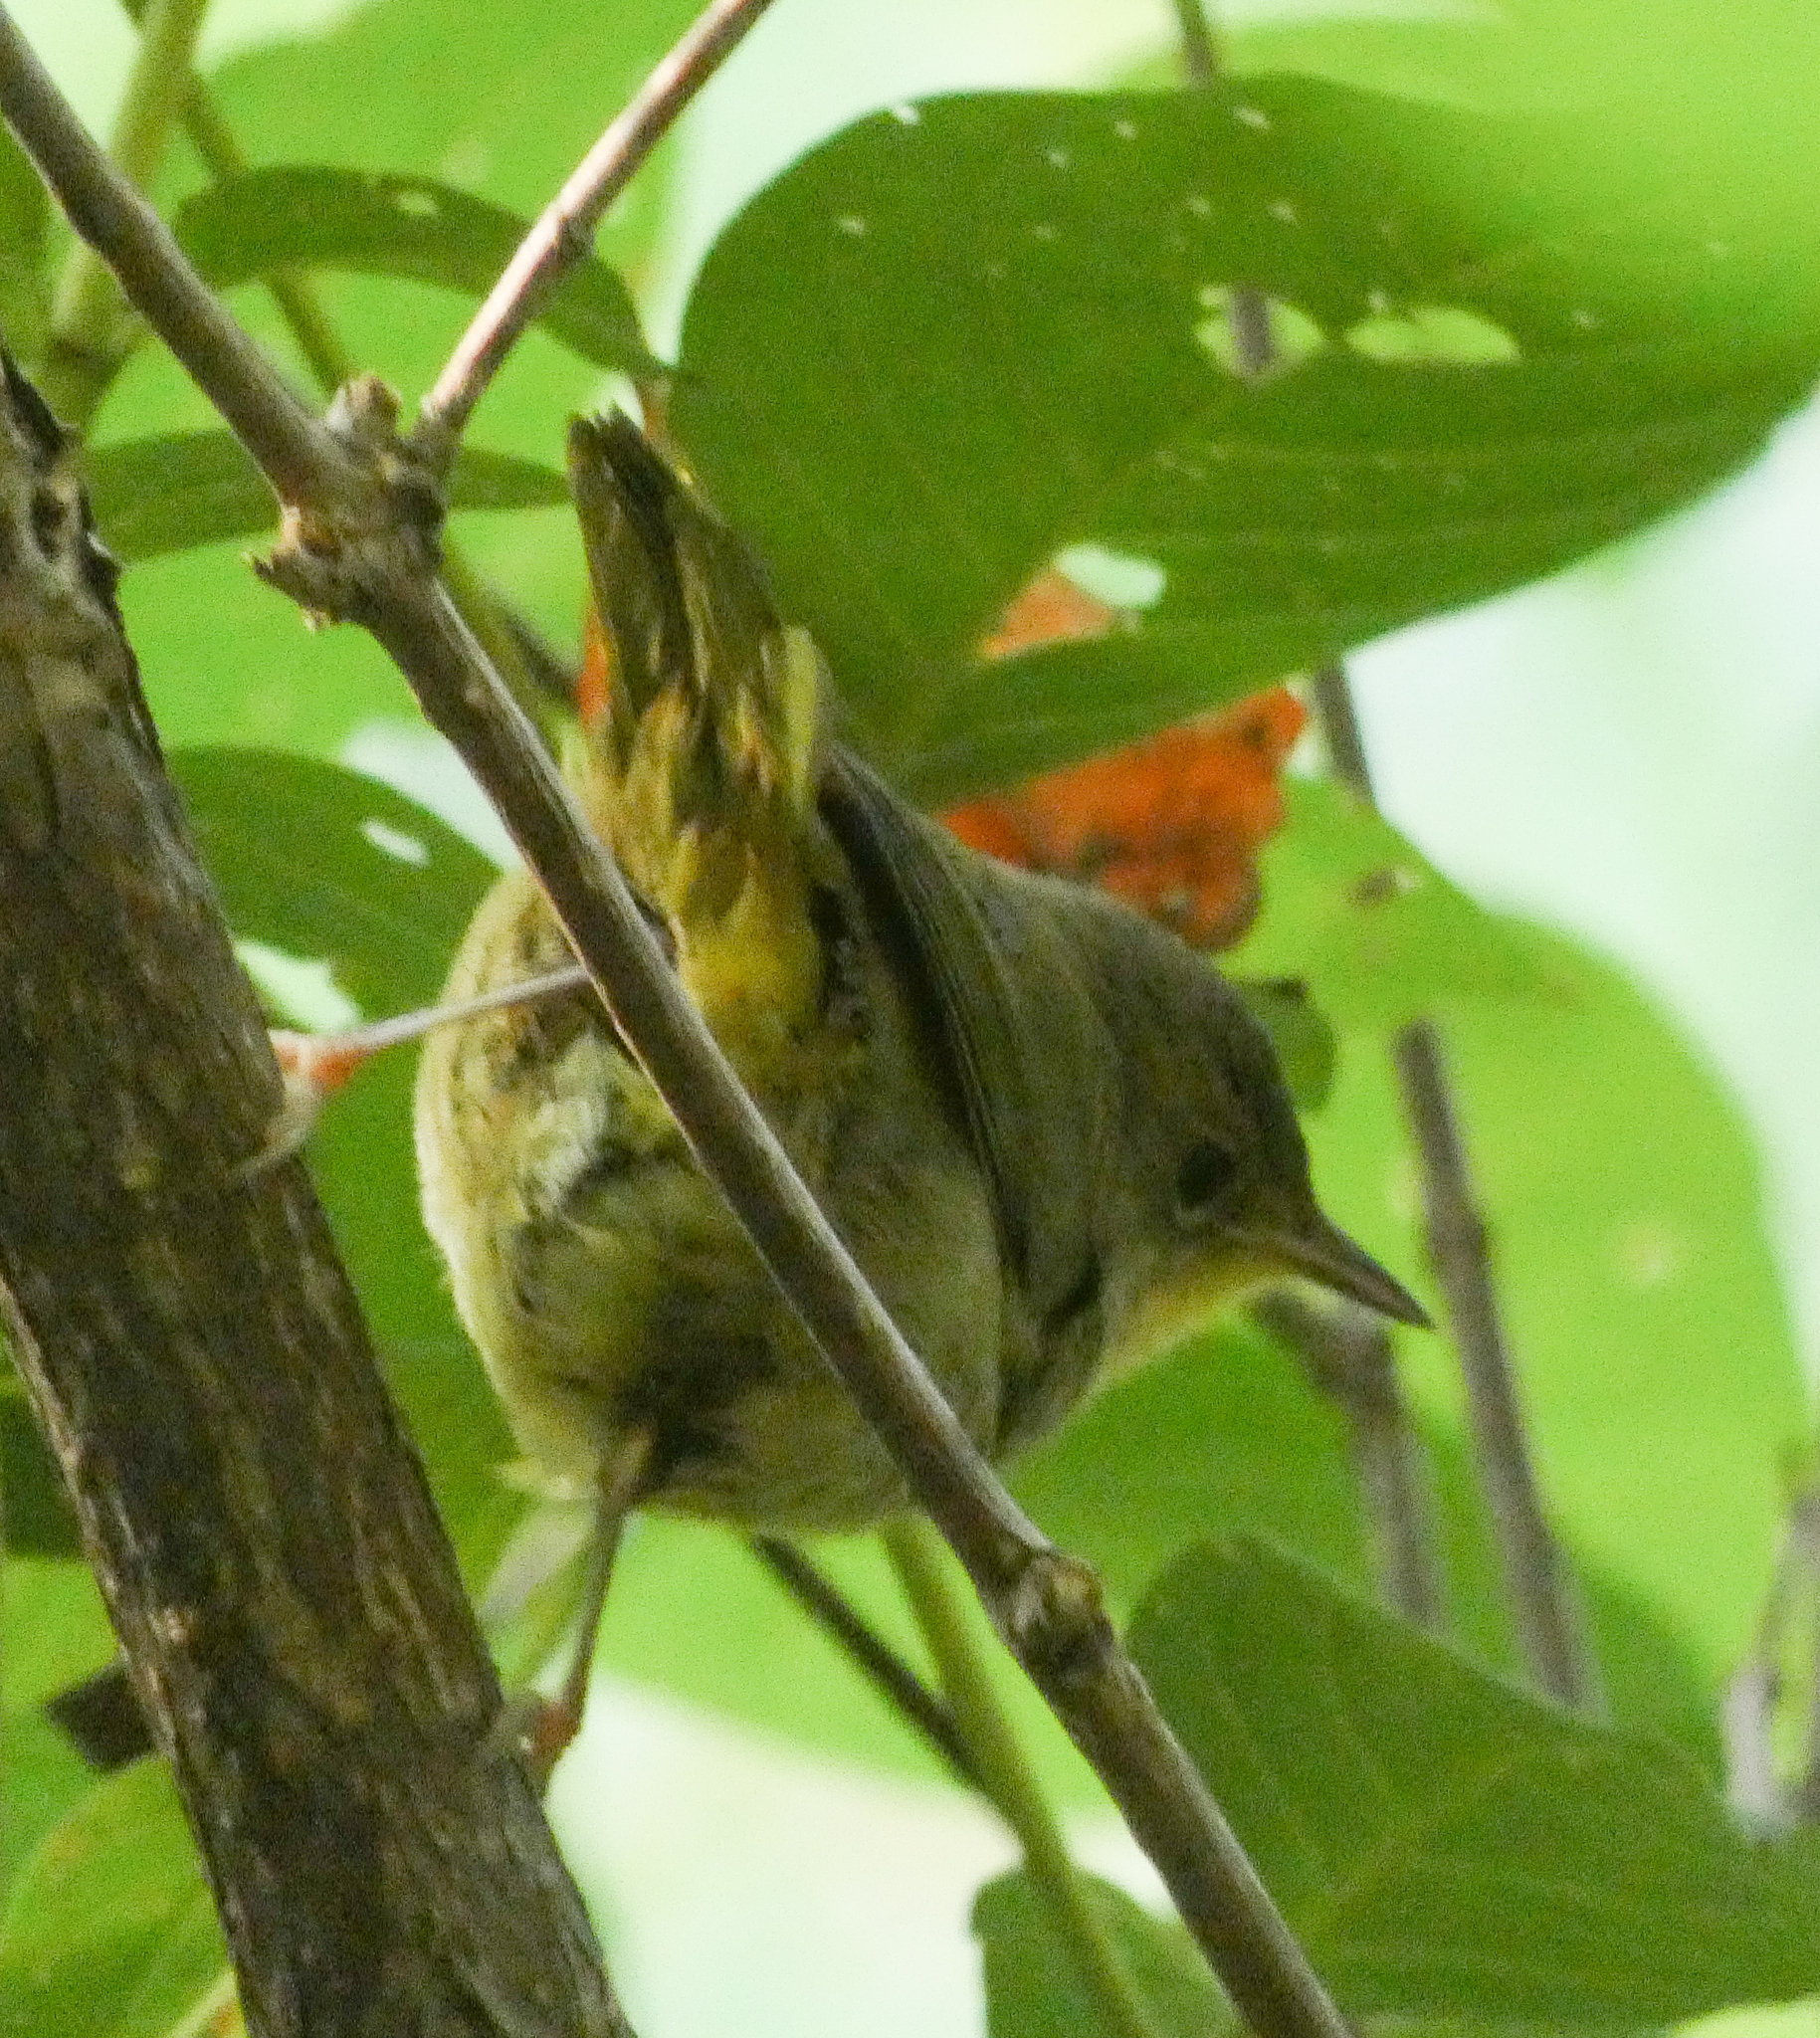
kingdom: Animalia
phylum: Chordata
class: Aves
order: Passeriformes
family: Parulidae
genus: Geothlypis
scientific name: Geothlypis trichas
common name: Common yellowthroat
